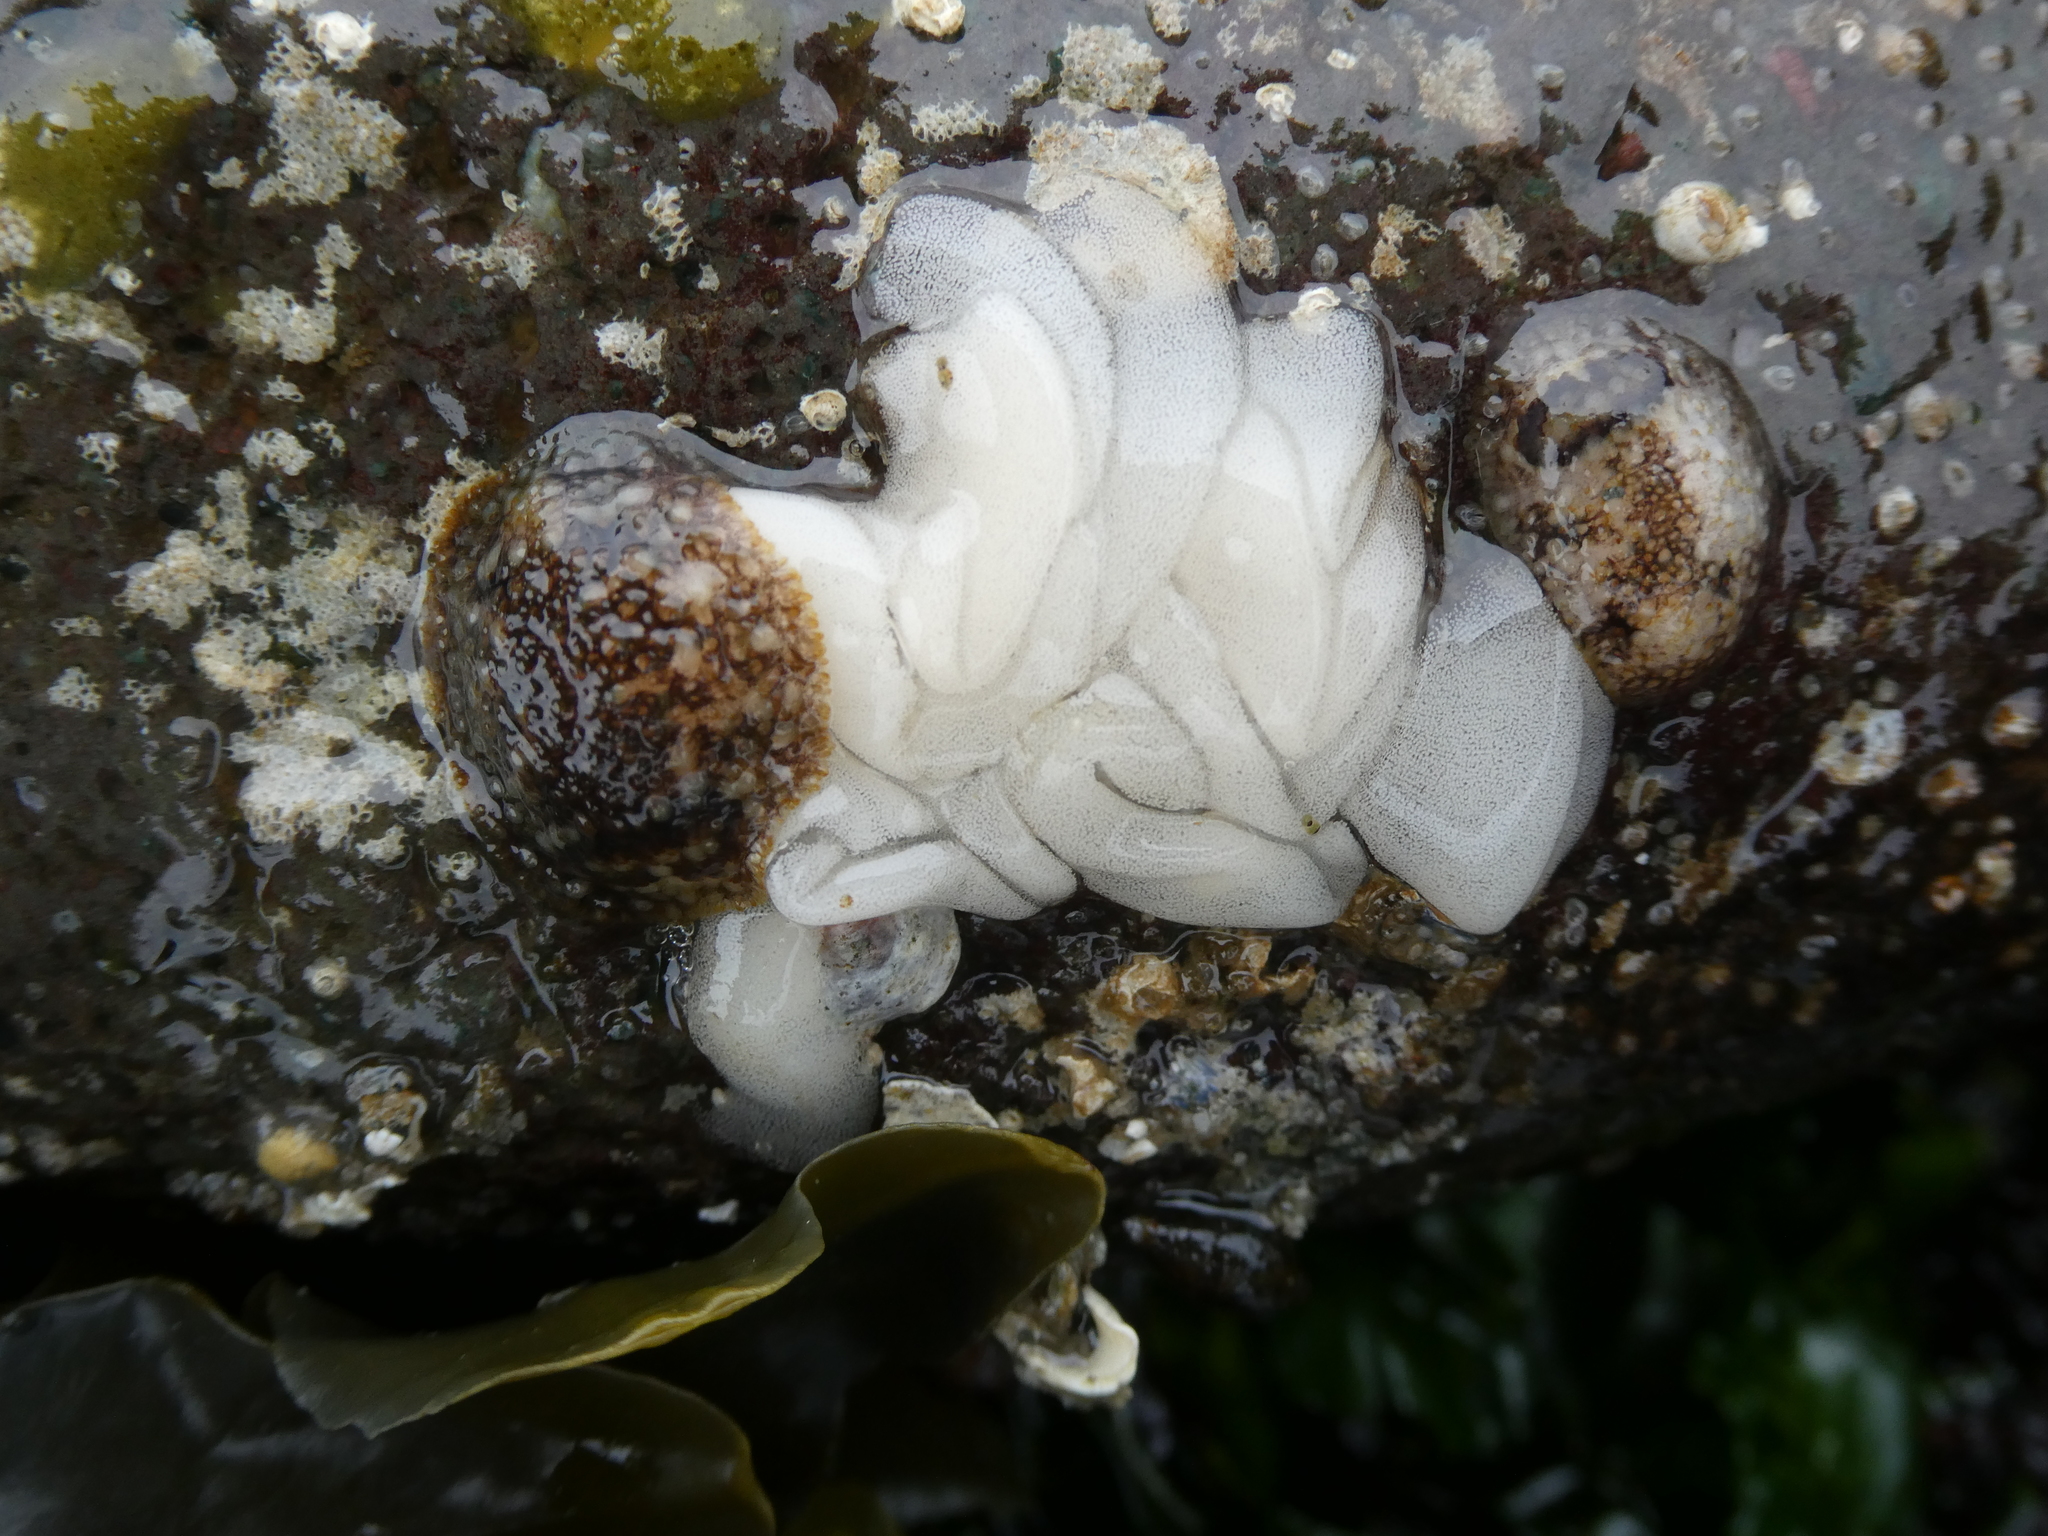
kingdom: Animalia
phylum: Mollusca
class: Gastropoda
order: Nudibranchia
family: Onchidorididae
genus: Onchidoris
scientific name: Onchidoris bilamellata
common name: Barnacle-eating onchidoris
